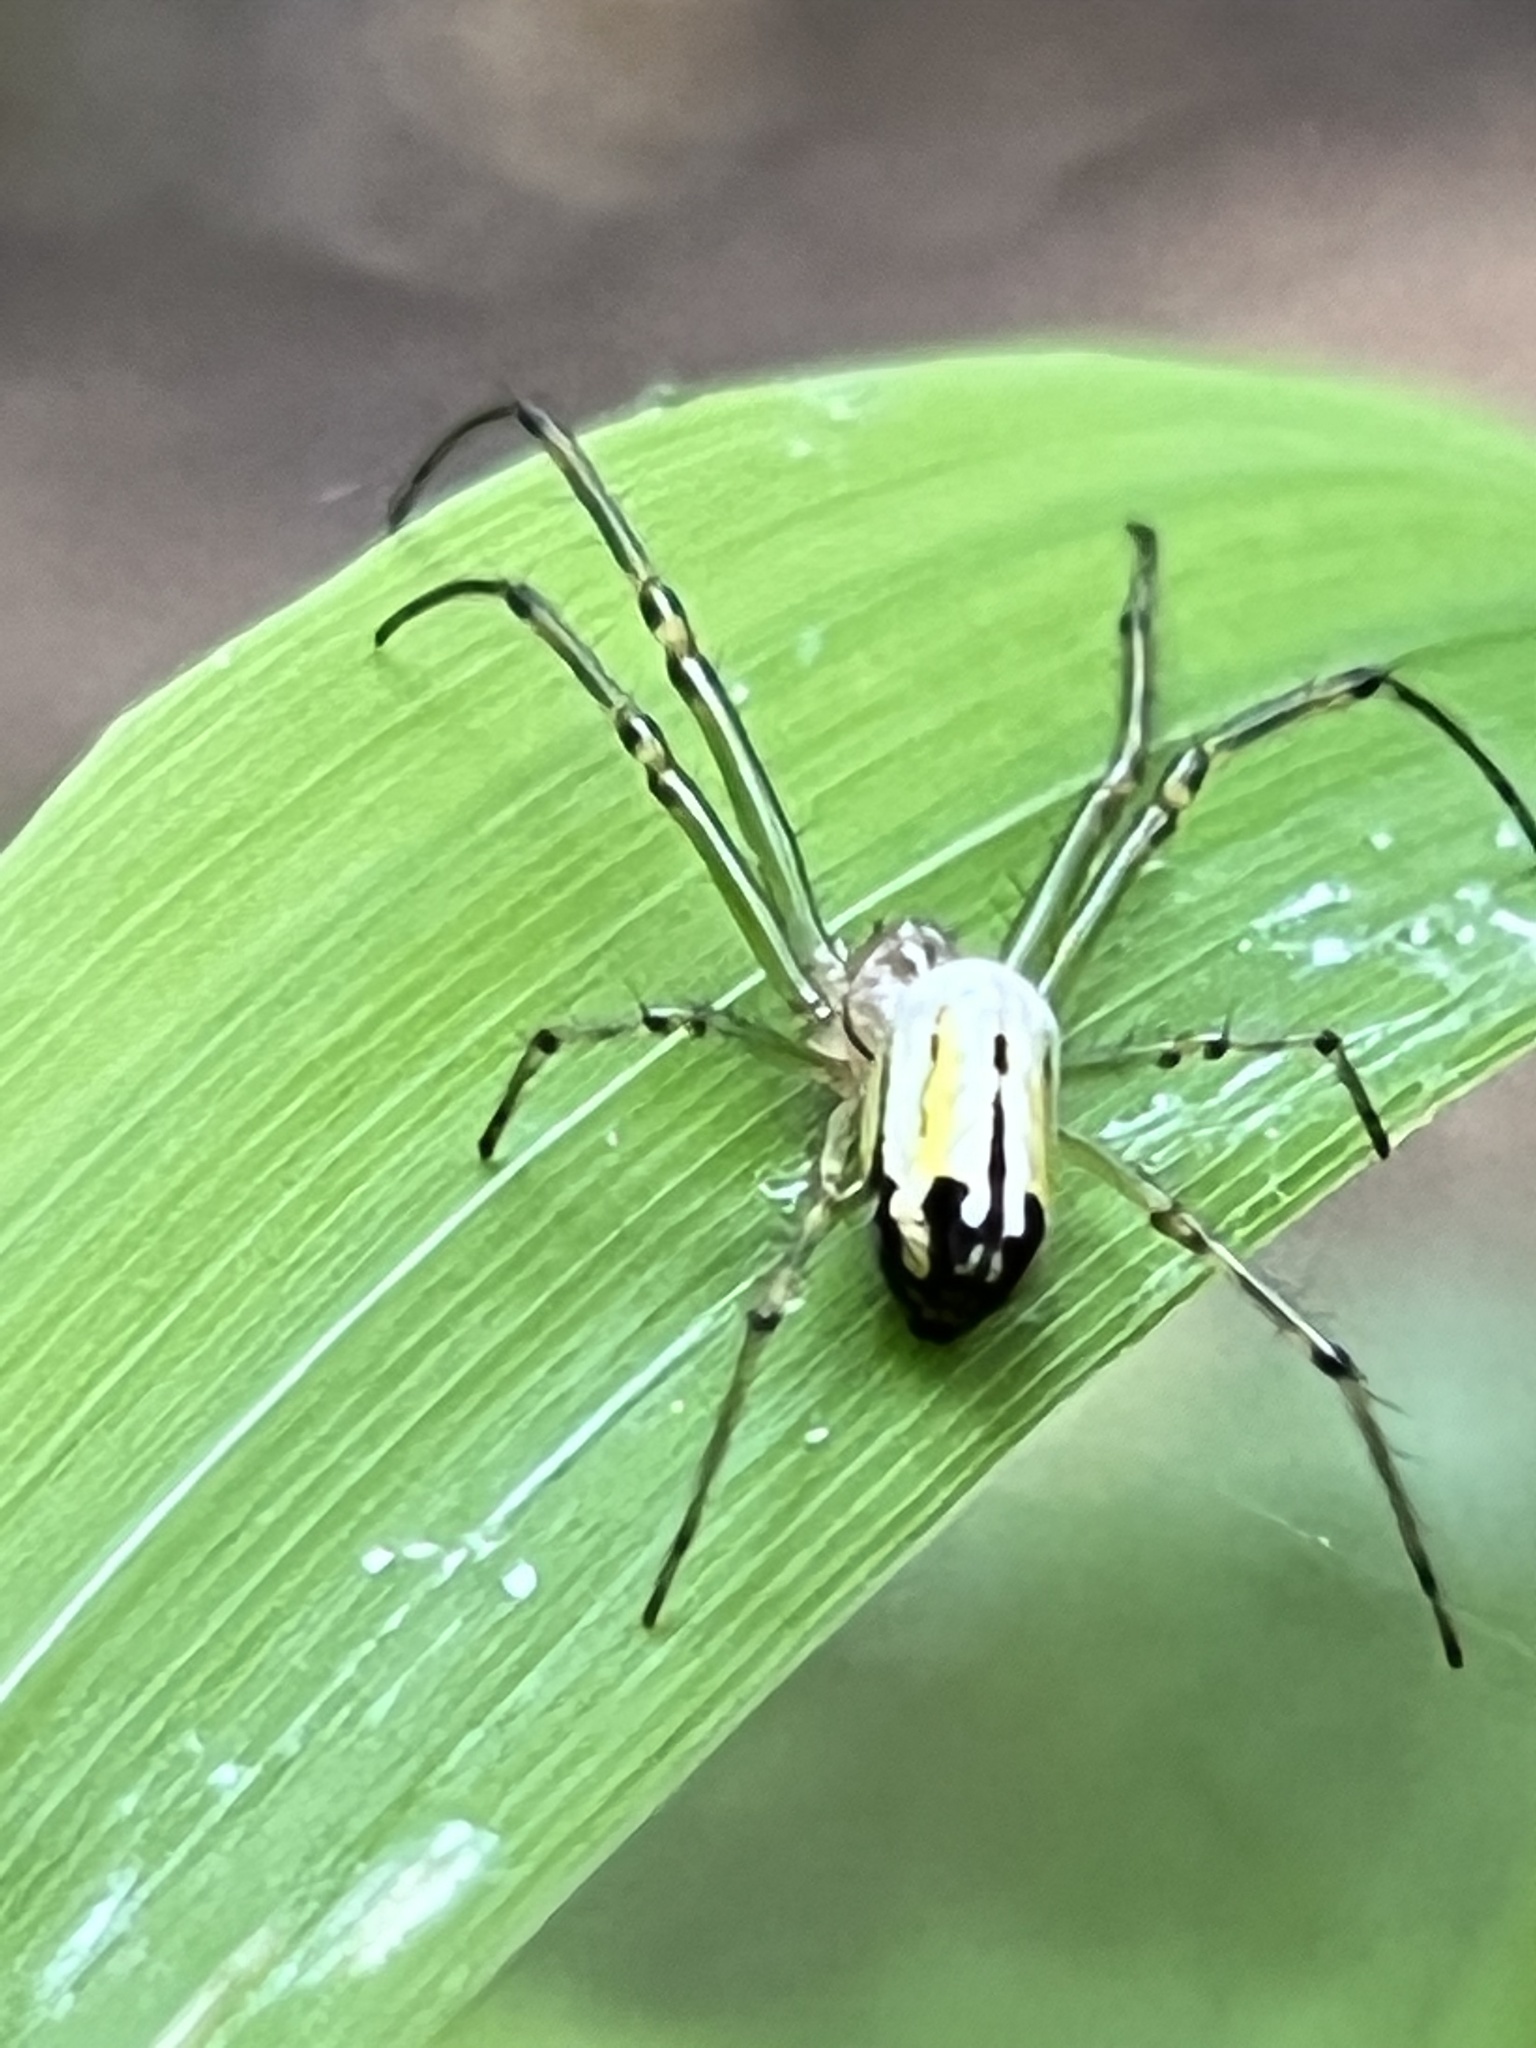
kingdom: Animalia
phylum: Arthropoda
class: Arachnida
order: Araneae
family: Tetragnathidae
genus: Leucauge
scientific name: Leucauge venusta
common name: Longjawed orb weavers
